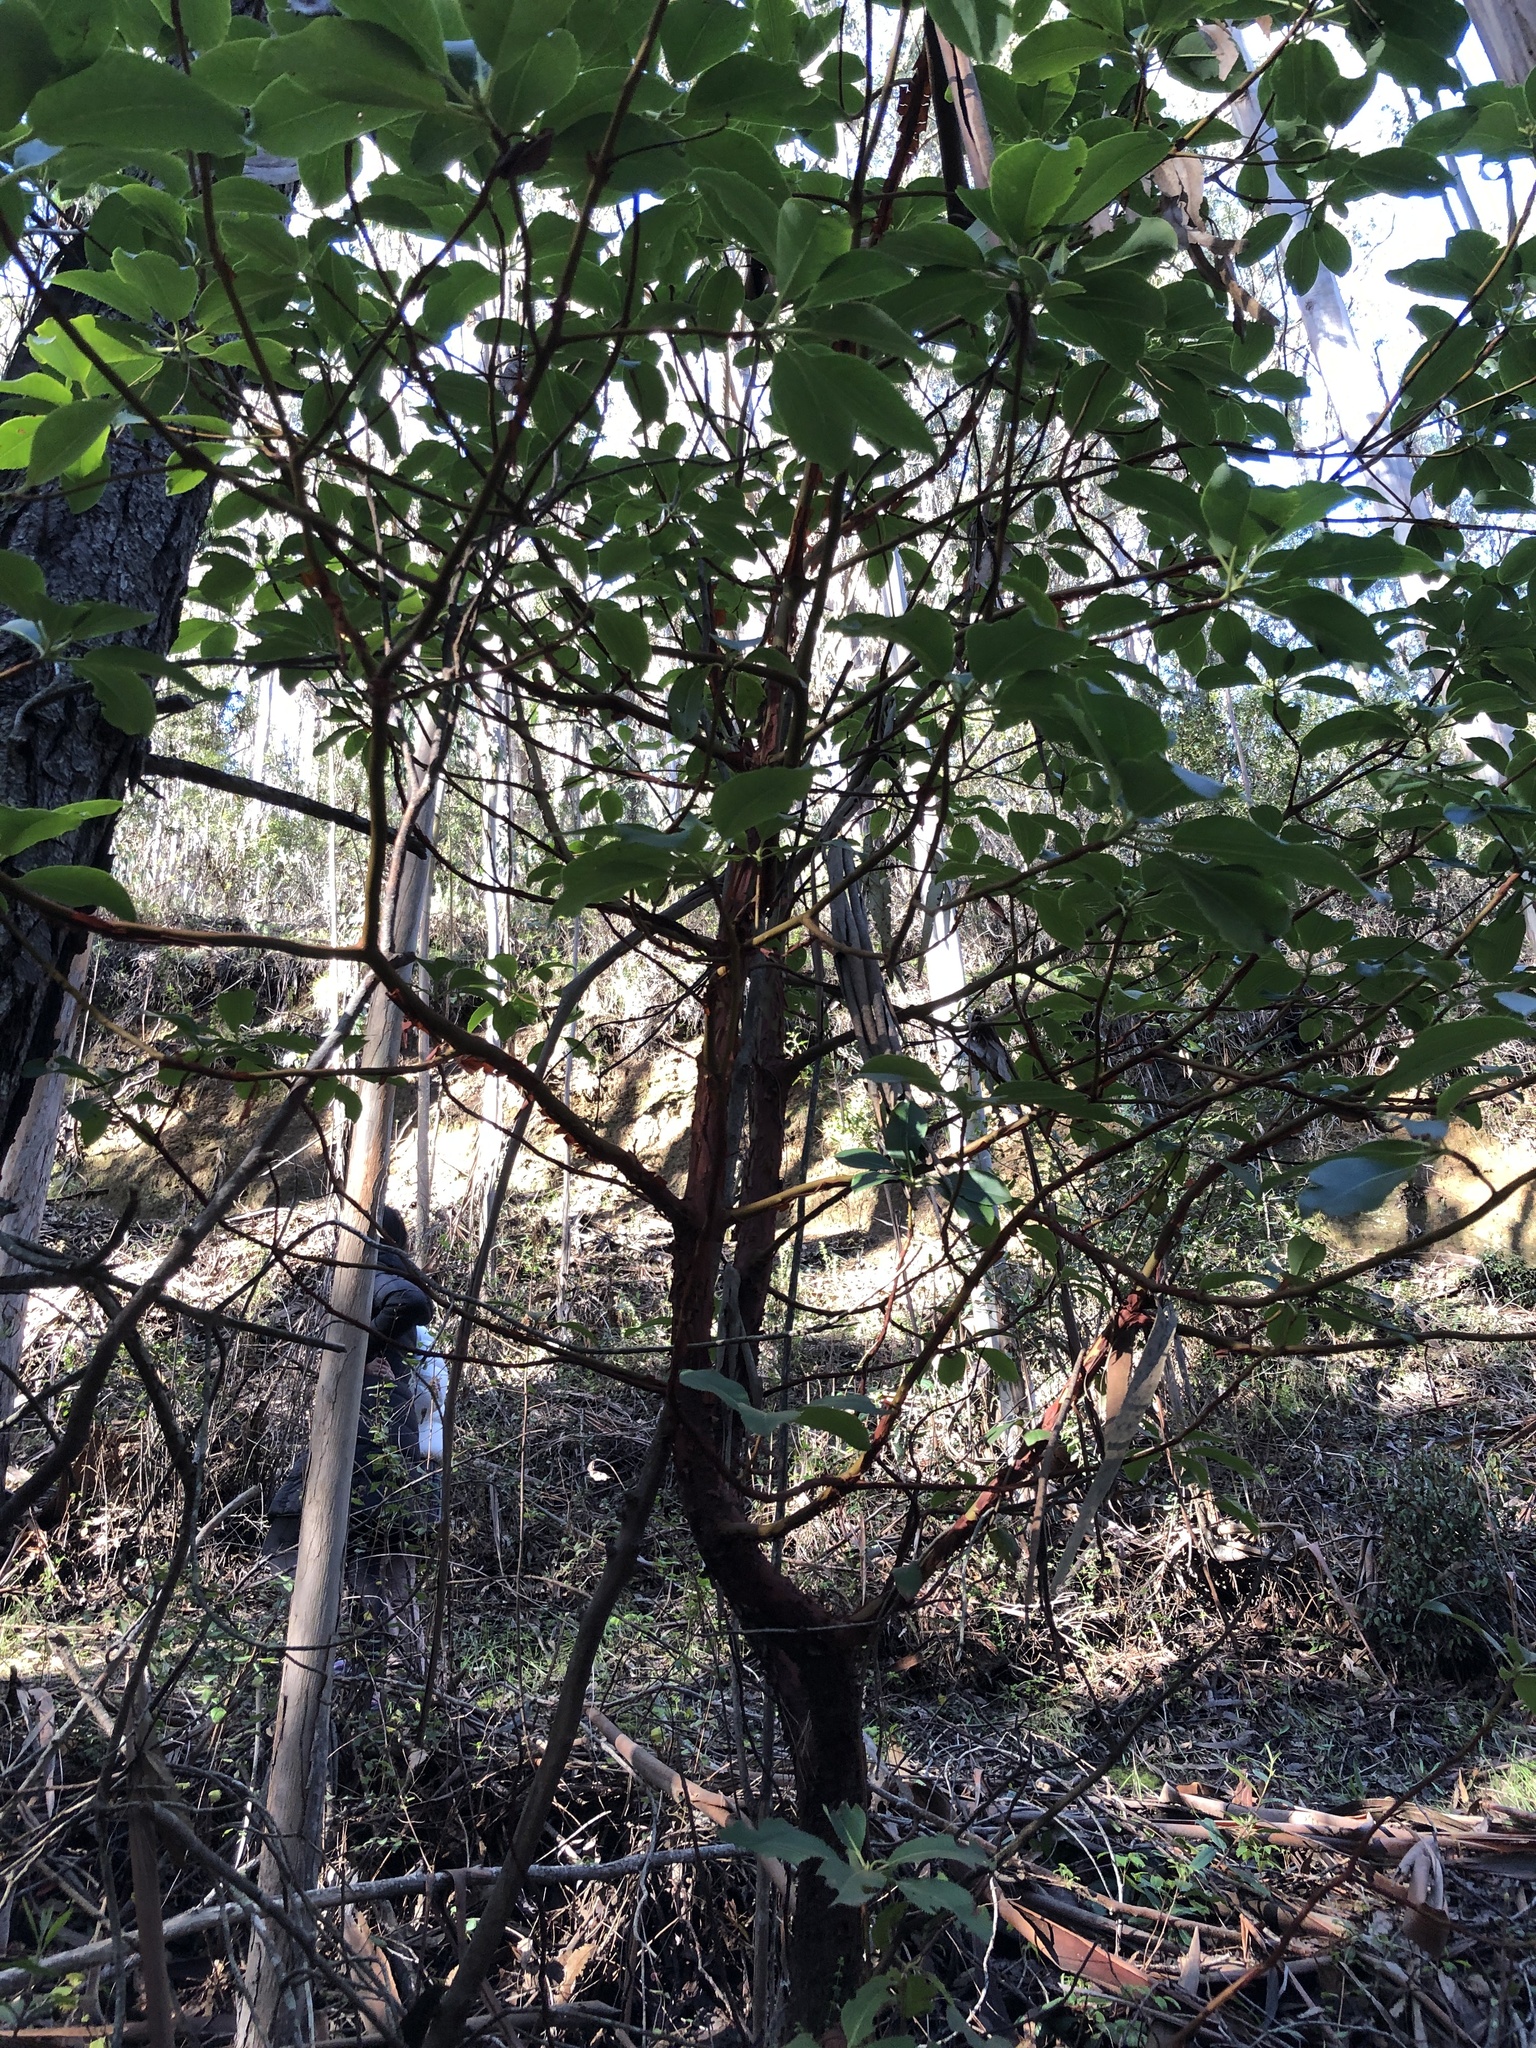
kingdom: Plantae
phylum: Tracheophyta
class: Magnoliopsida
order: Ericales
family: Ericaceae
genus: Arbutus
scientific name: Arbutus menziesii
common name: Pacific madrone
